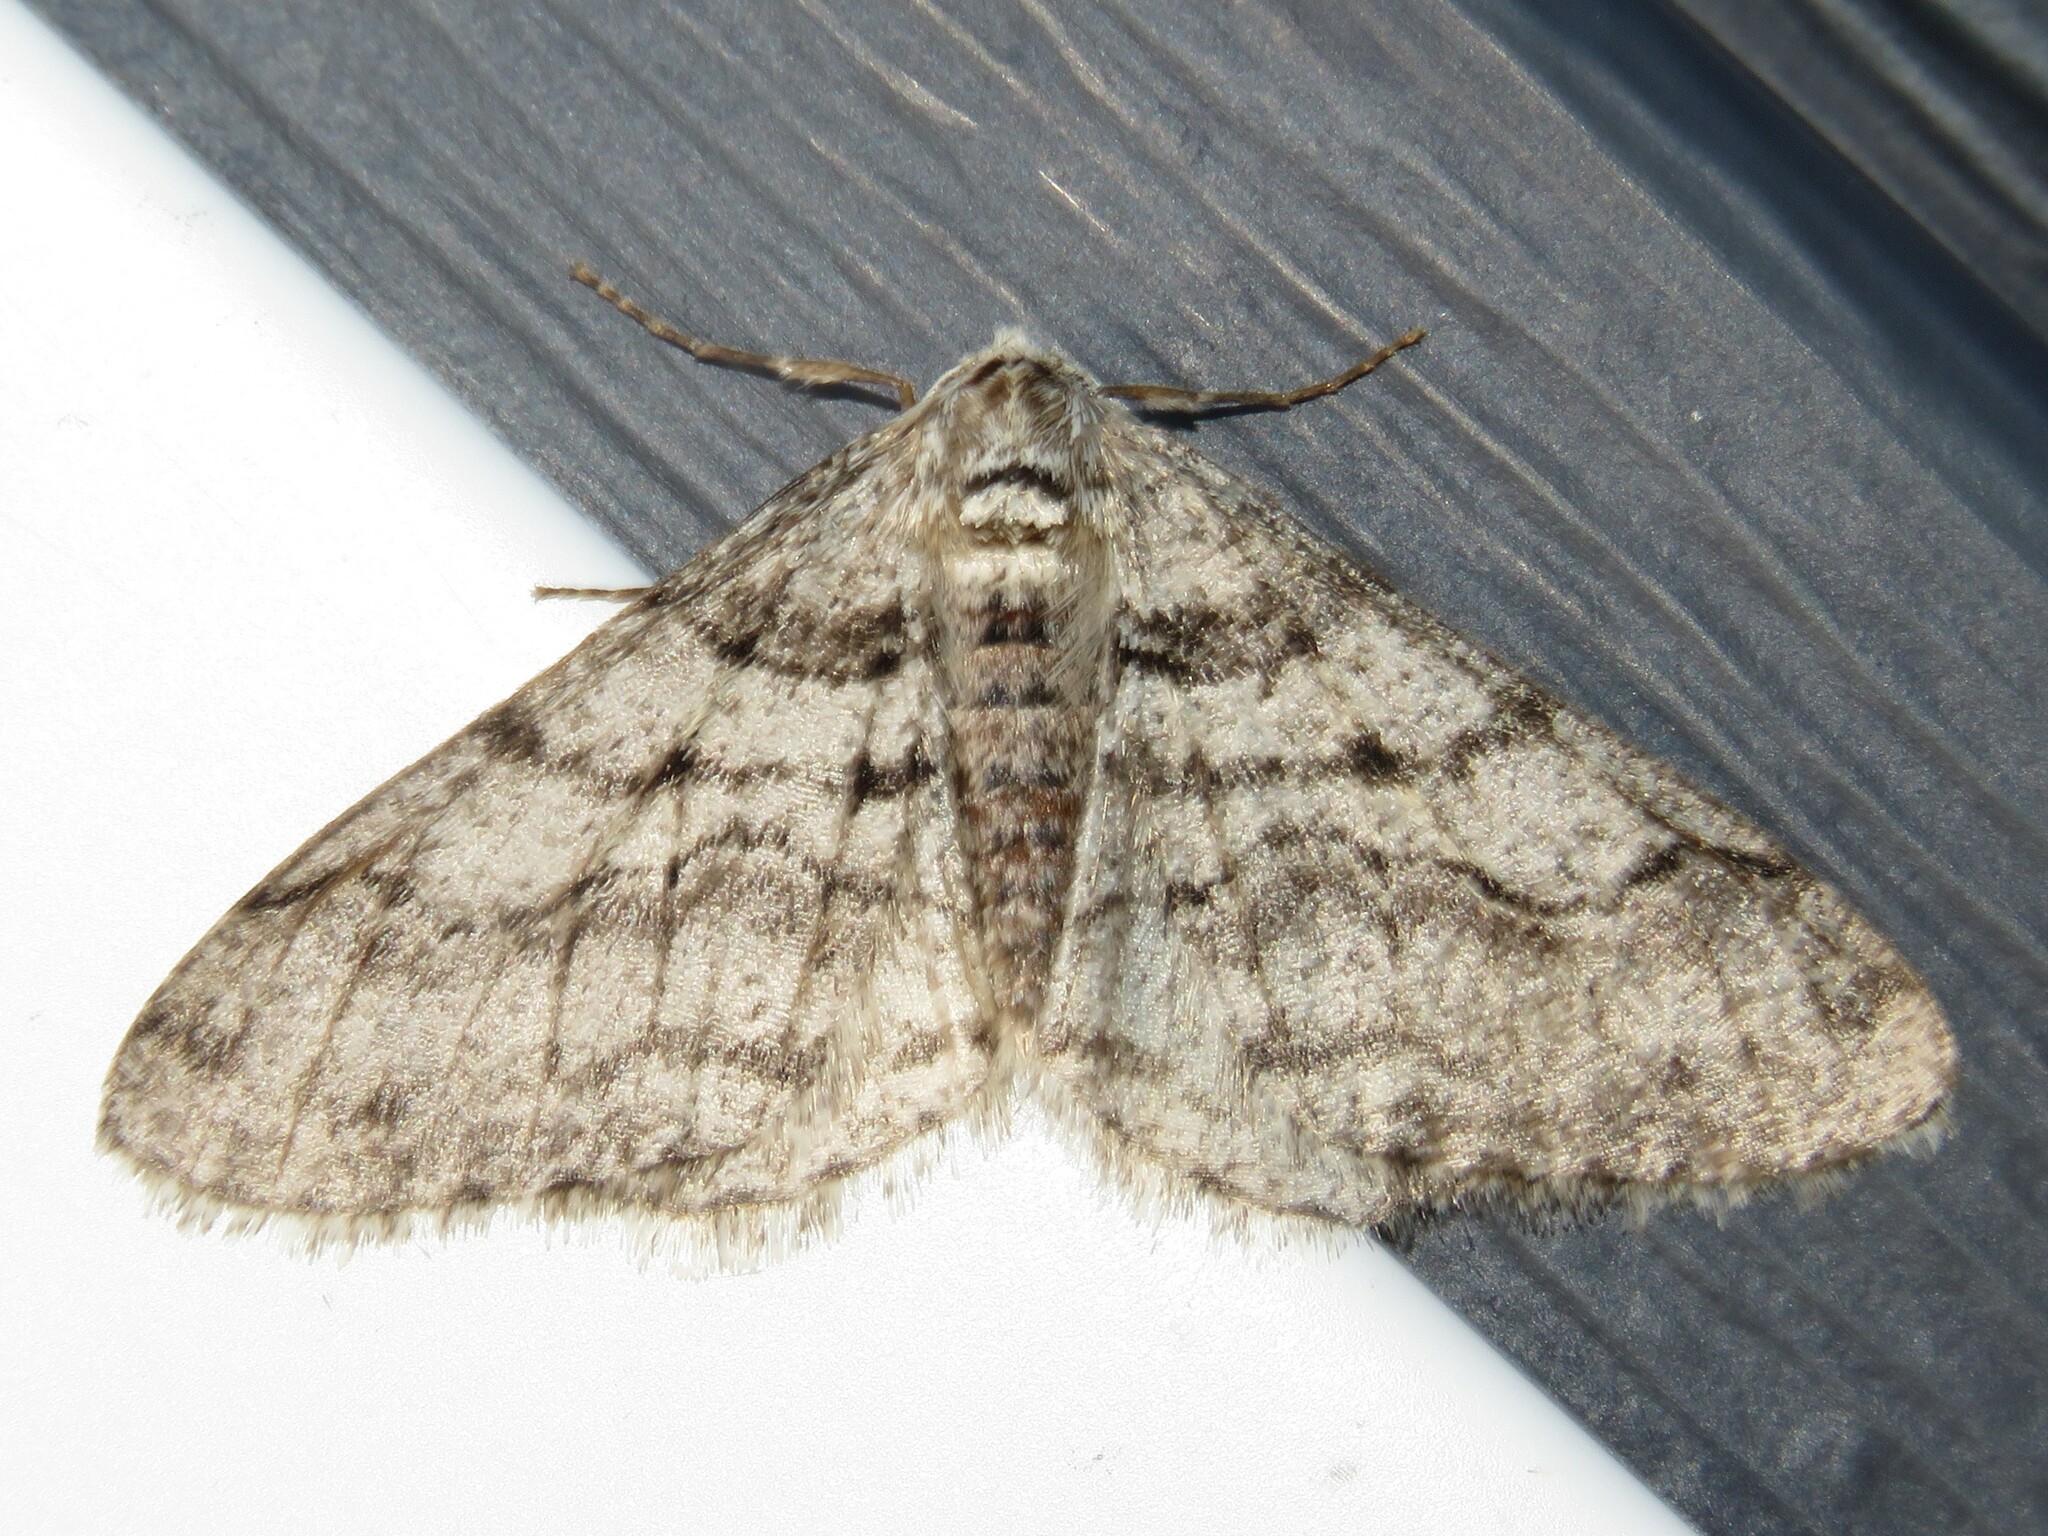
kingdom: Animalia
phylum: Arthropoda
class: Insecta
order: Lepidoptera
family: Geometridae
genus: Phigalia
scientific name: Phigalia titea
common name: Spiny looper
